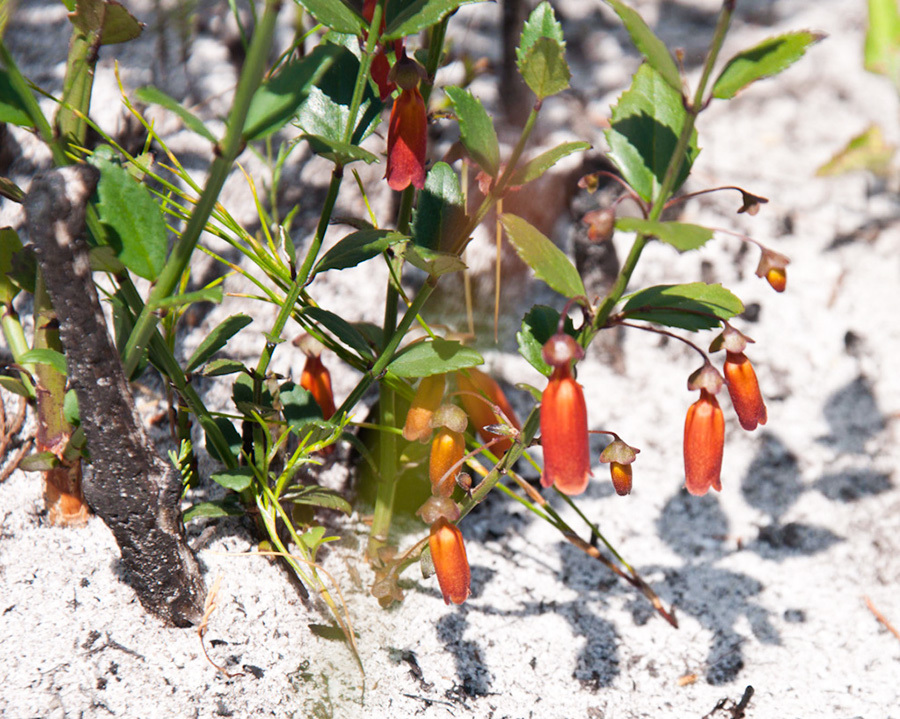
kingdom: Plantae
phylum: Tracheophyta
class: Magnoliopsida
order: Lamiales
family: Stilbaceae
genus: Halleria
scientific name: Halleria elliptica
